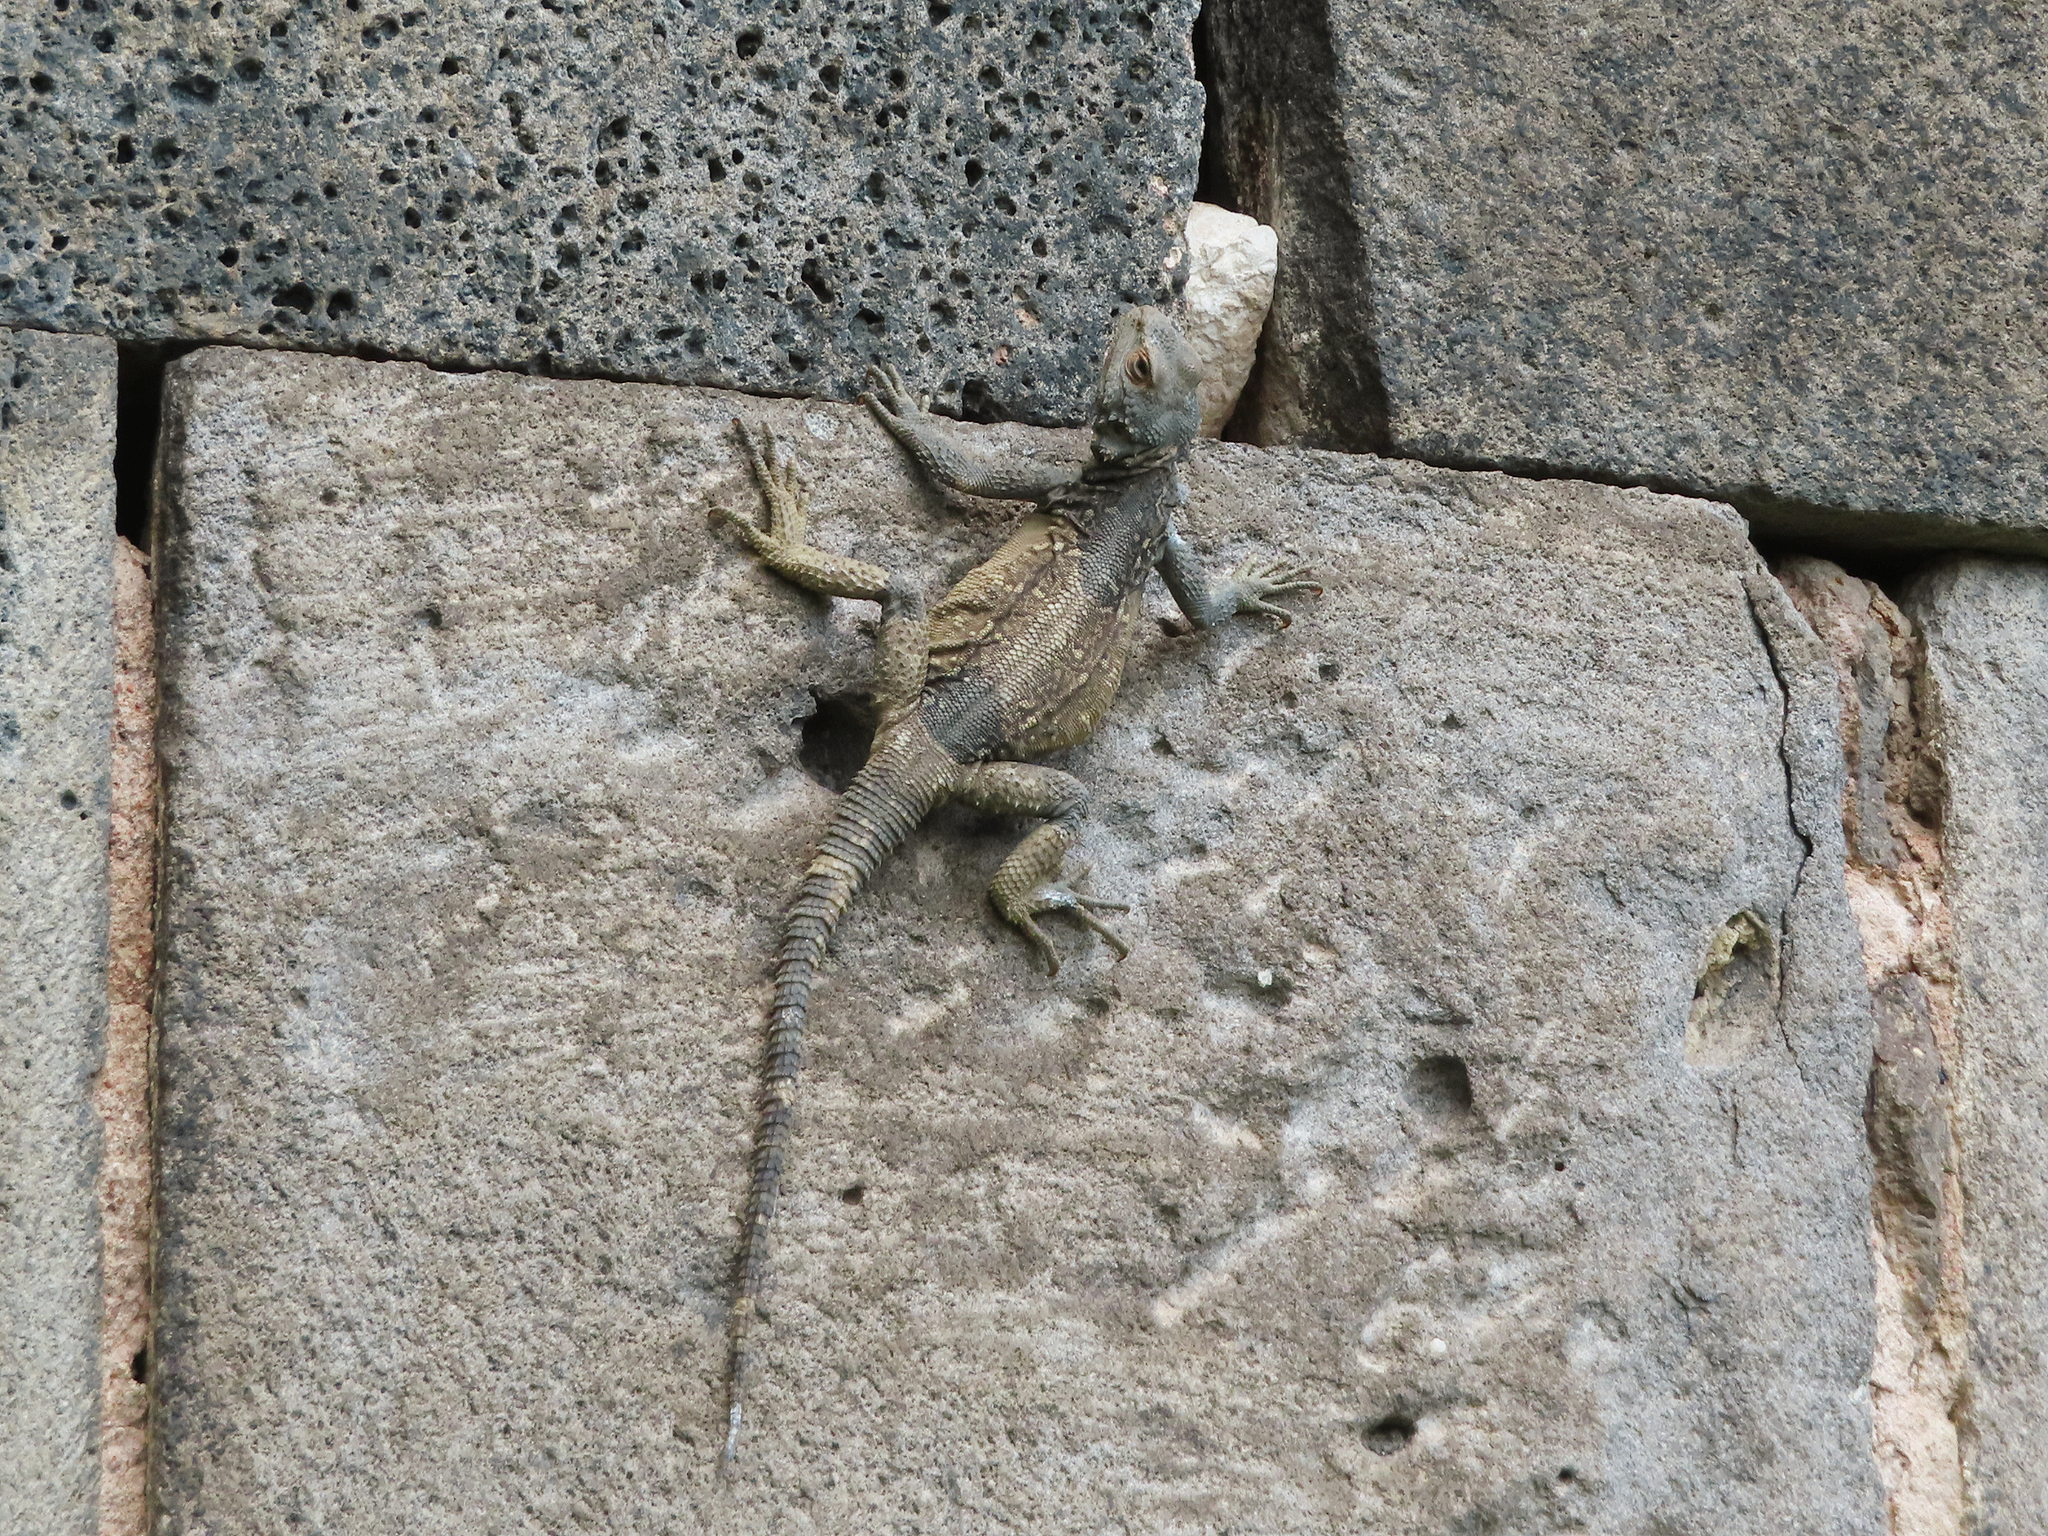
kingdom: Animalia
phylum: Chordata
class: Squamata
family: Agamidae
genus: Paralaudakia
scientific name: Paralaudakia caucasia
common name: Caucasian agama
